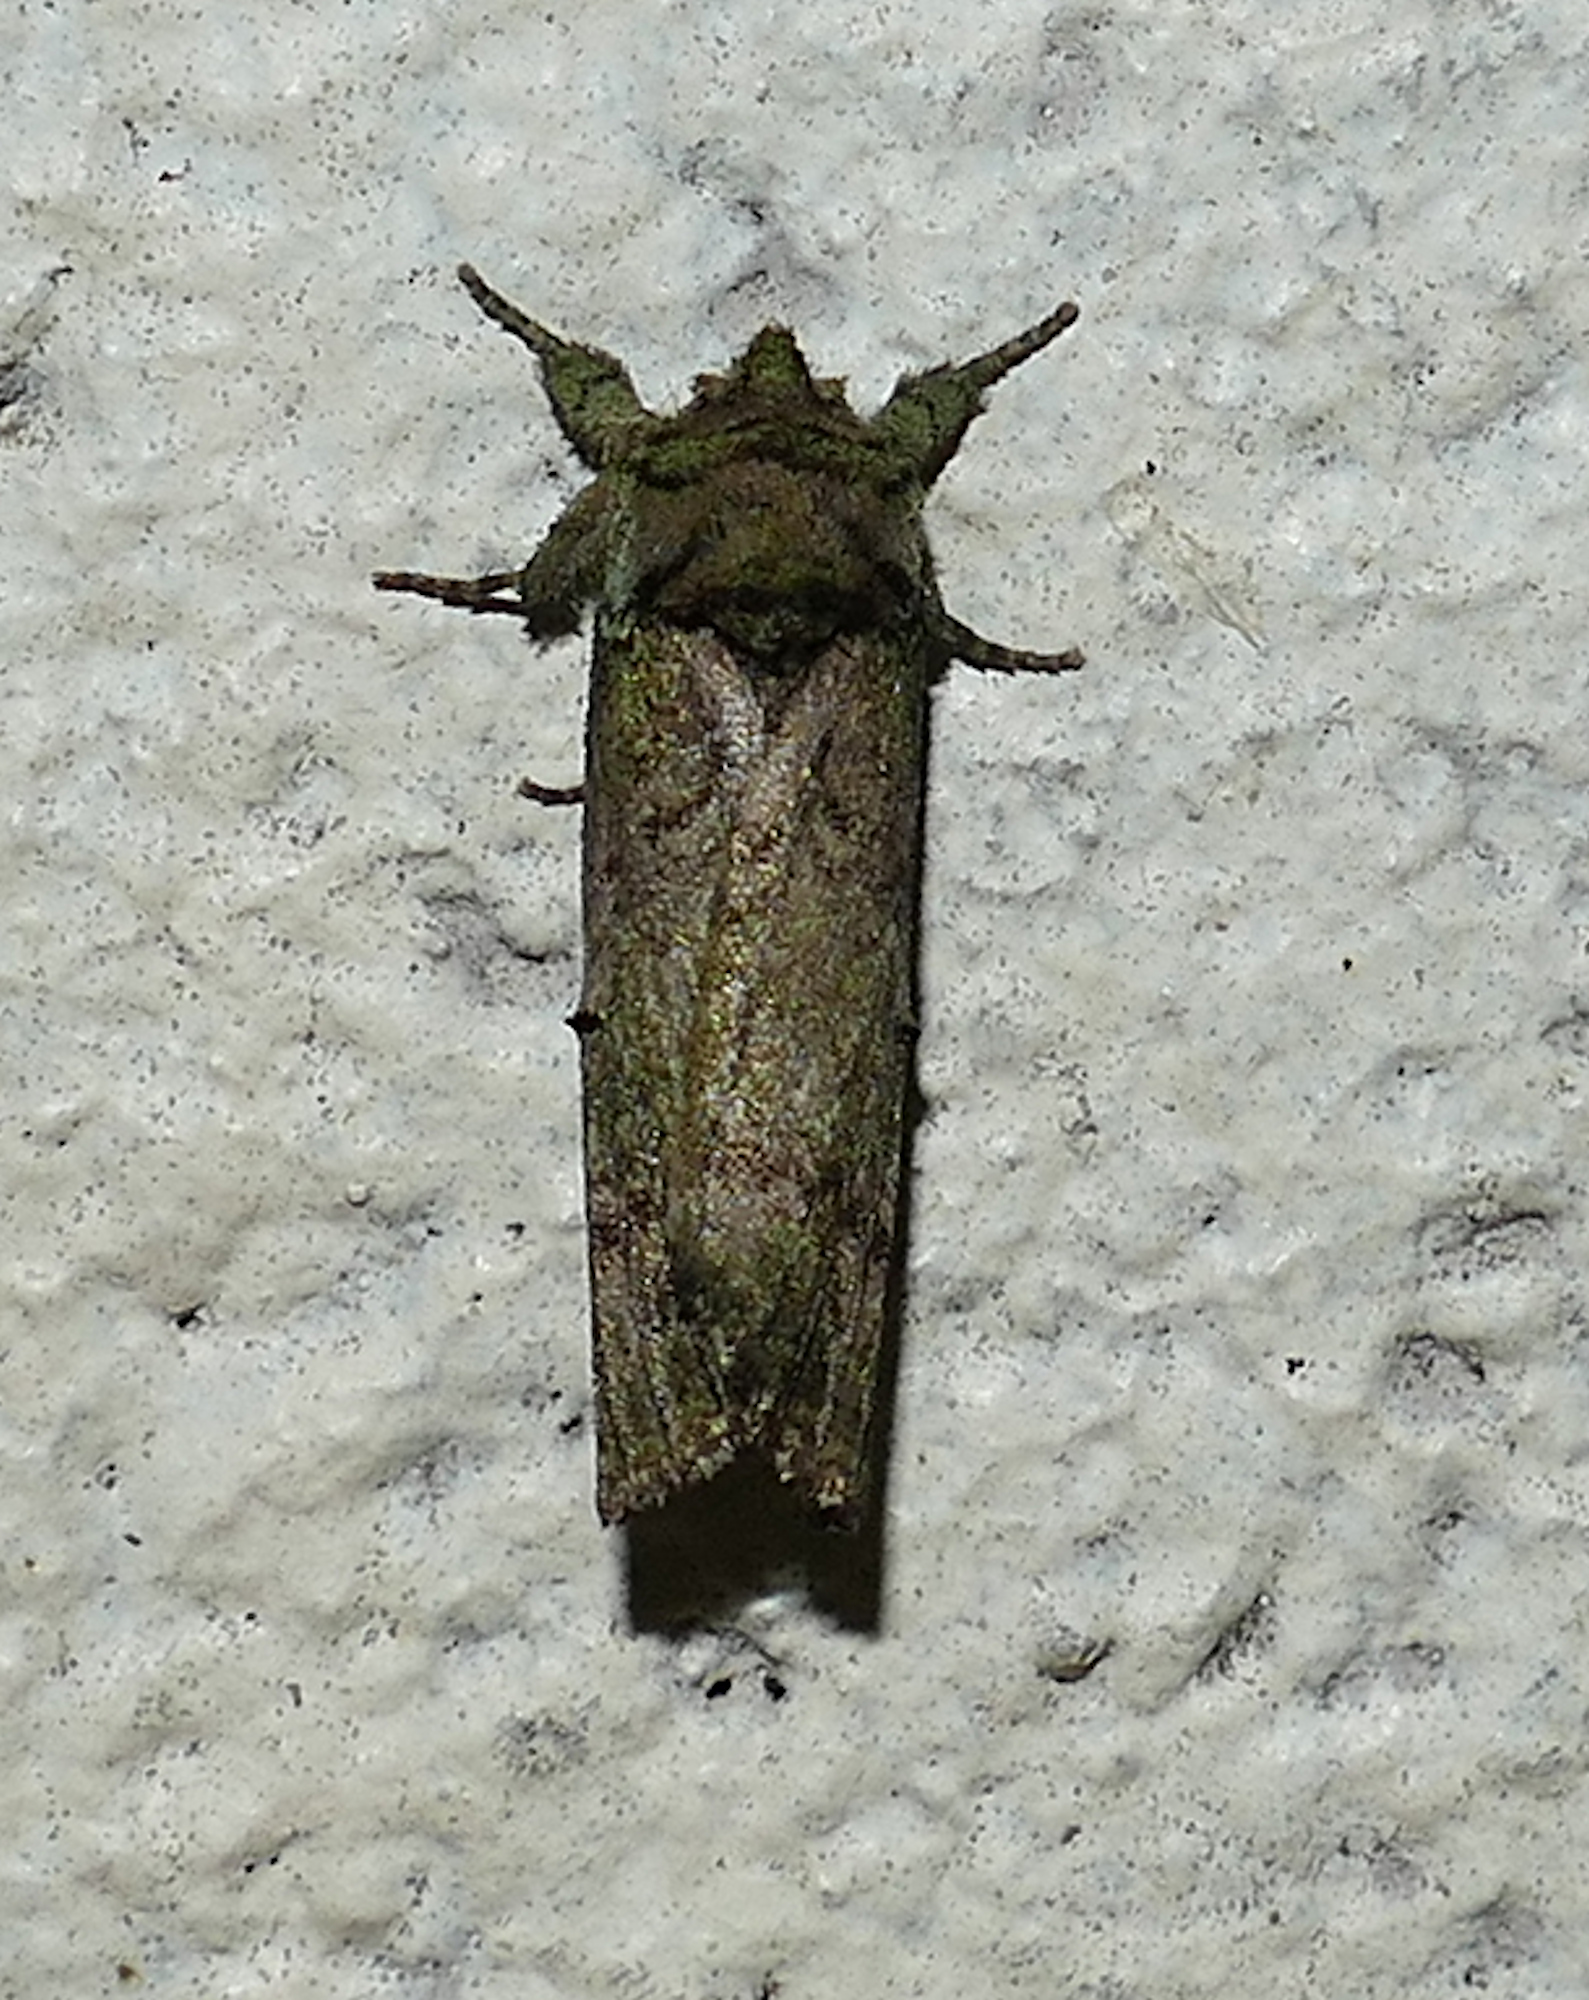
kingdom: Animalia
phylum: Arthropoda
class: Insecta
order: Lepidoptera
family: Notodontidae
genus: Schizura
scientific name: Schizura
